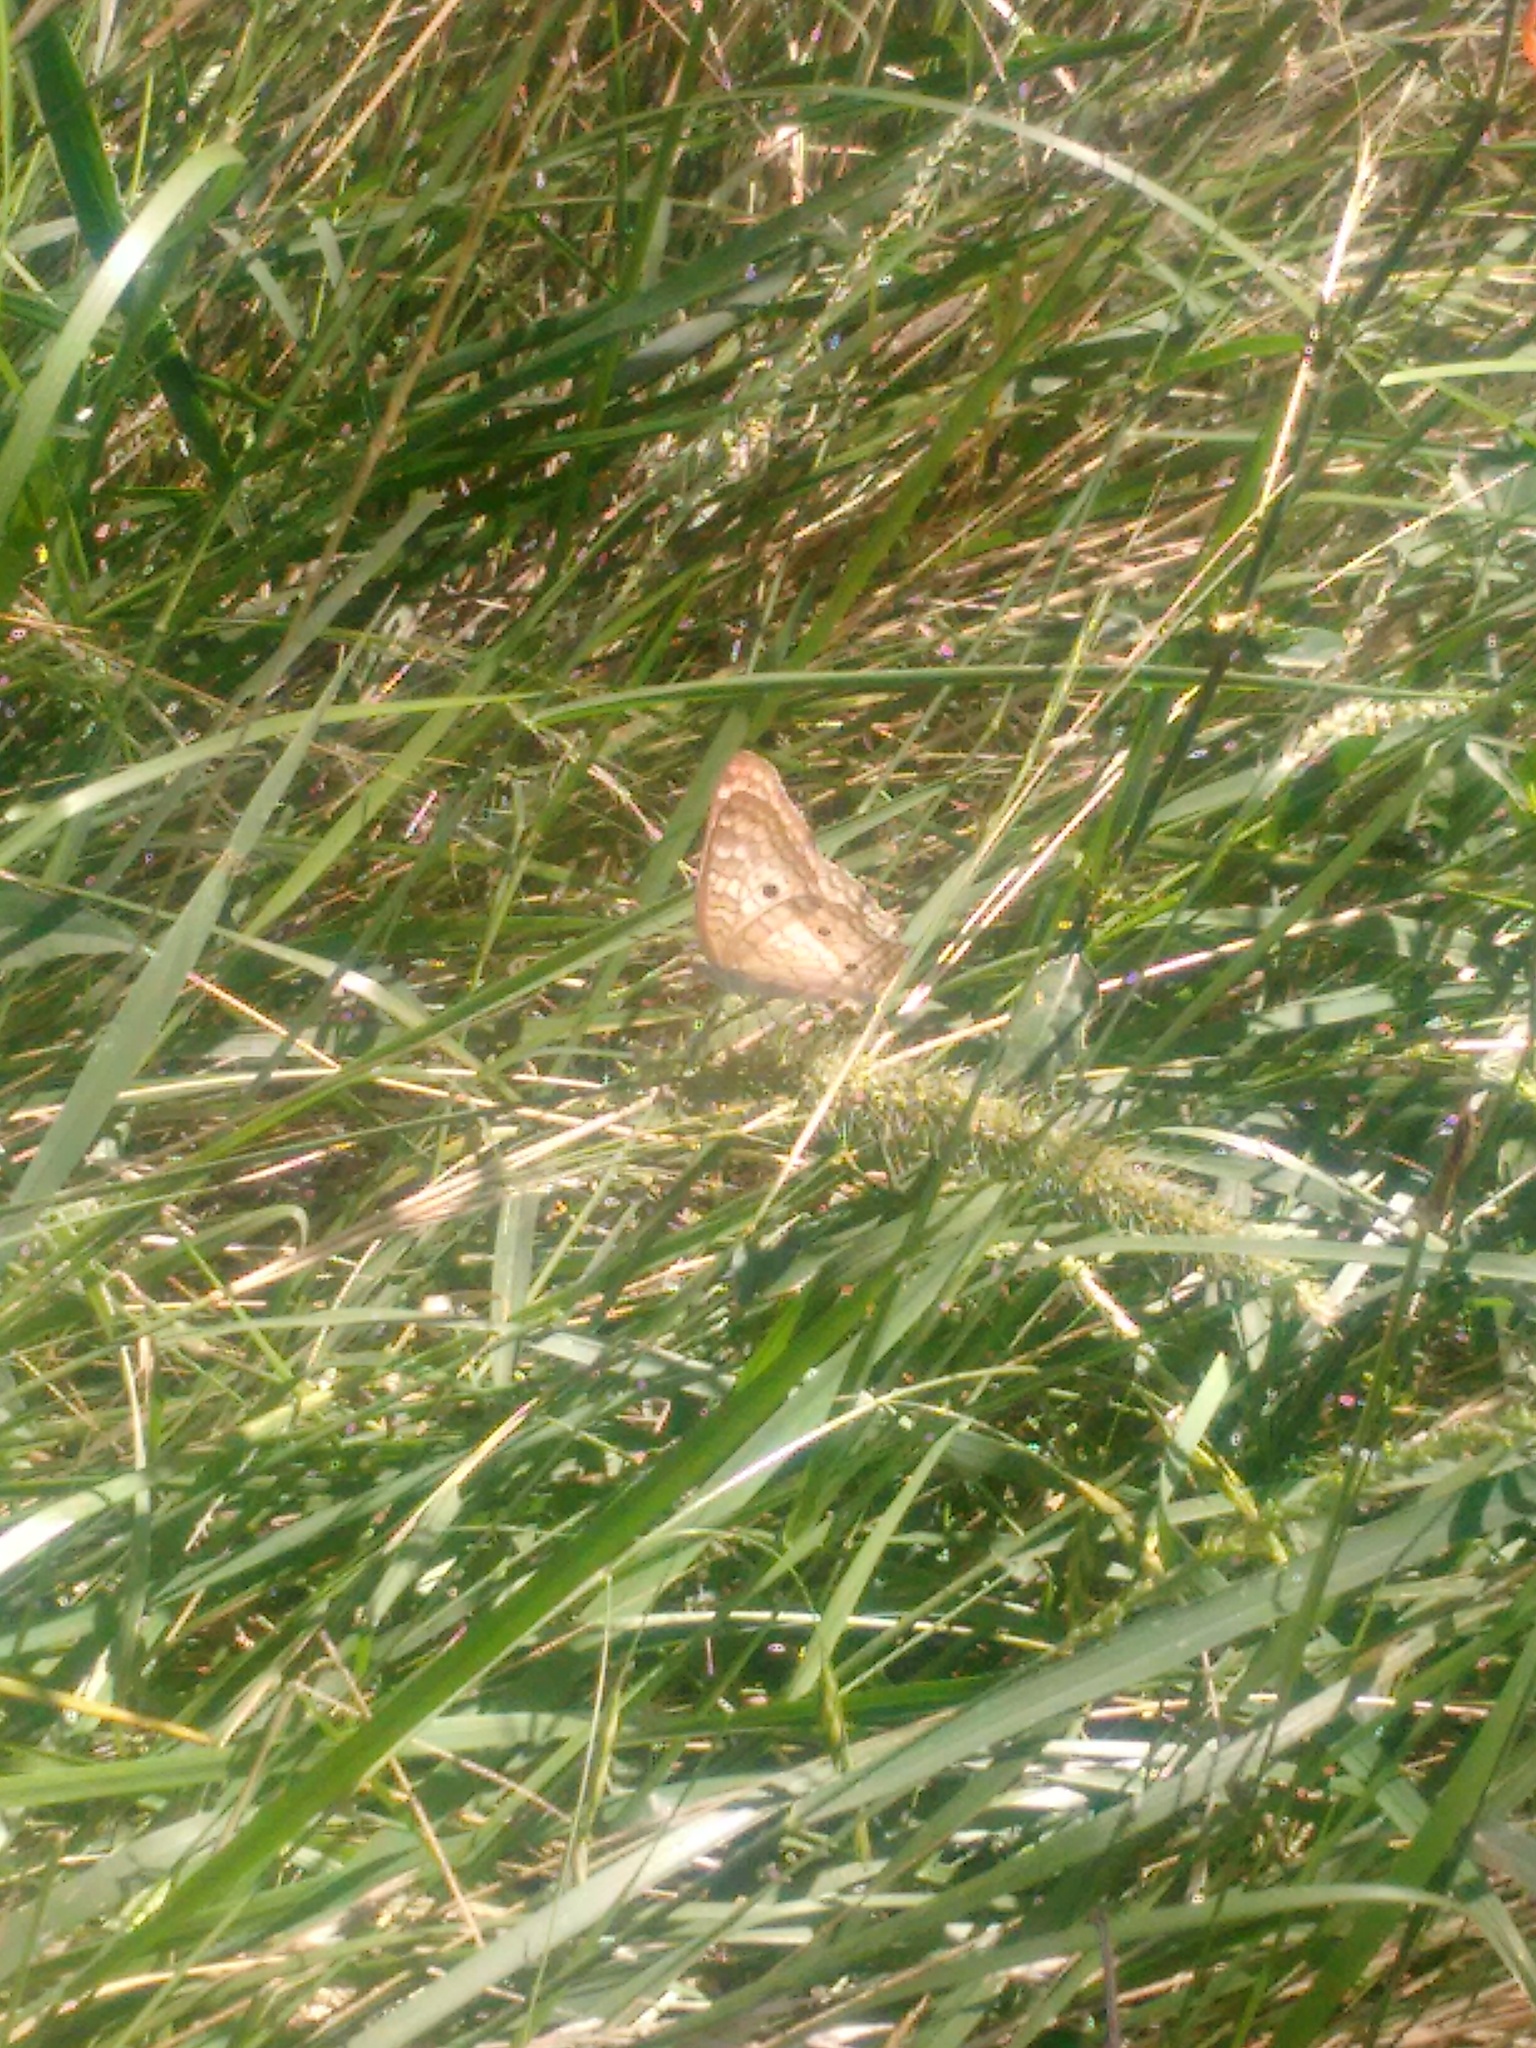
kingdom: Animalia
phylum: Arthropoda
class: Insecta
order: Lepidoptera
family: Nymphalidae
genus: Anartia
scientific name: Anartia jatrophae
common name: White peacock
